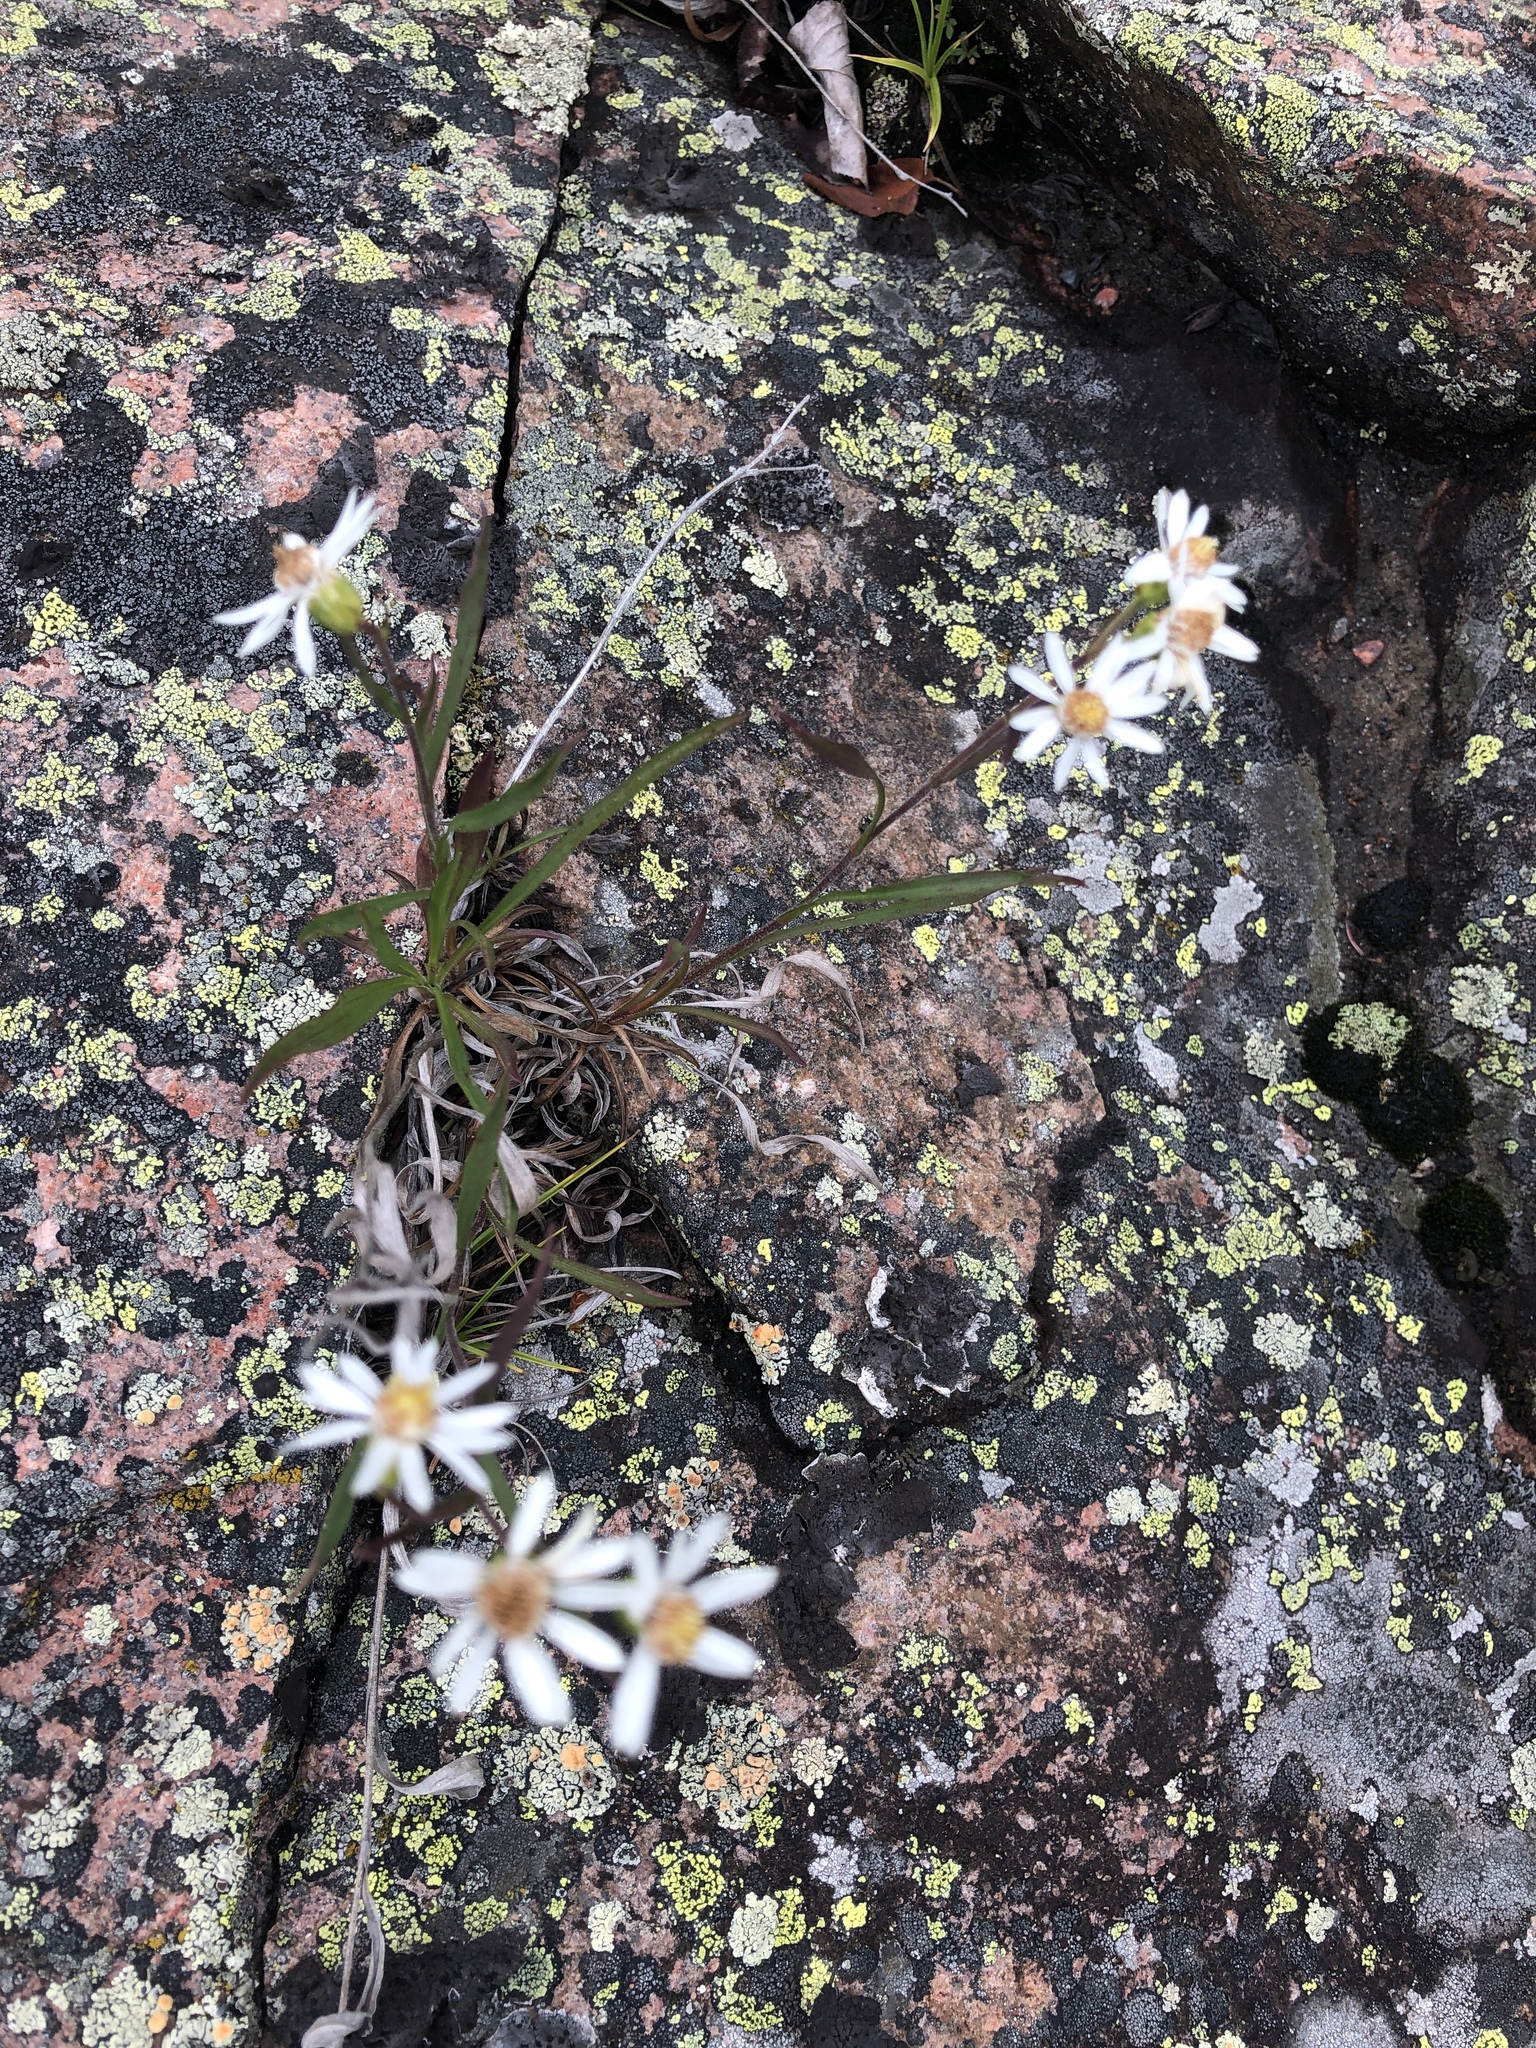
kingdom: Plantae
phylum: Tracheophyta
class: Magnoliopsida
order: Asterales
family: Asteraceae
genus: Solidago
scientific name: Solidago ptarmicoides
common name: White flat-top goldenrod
